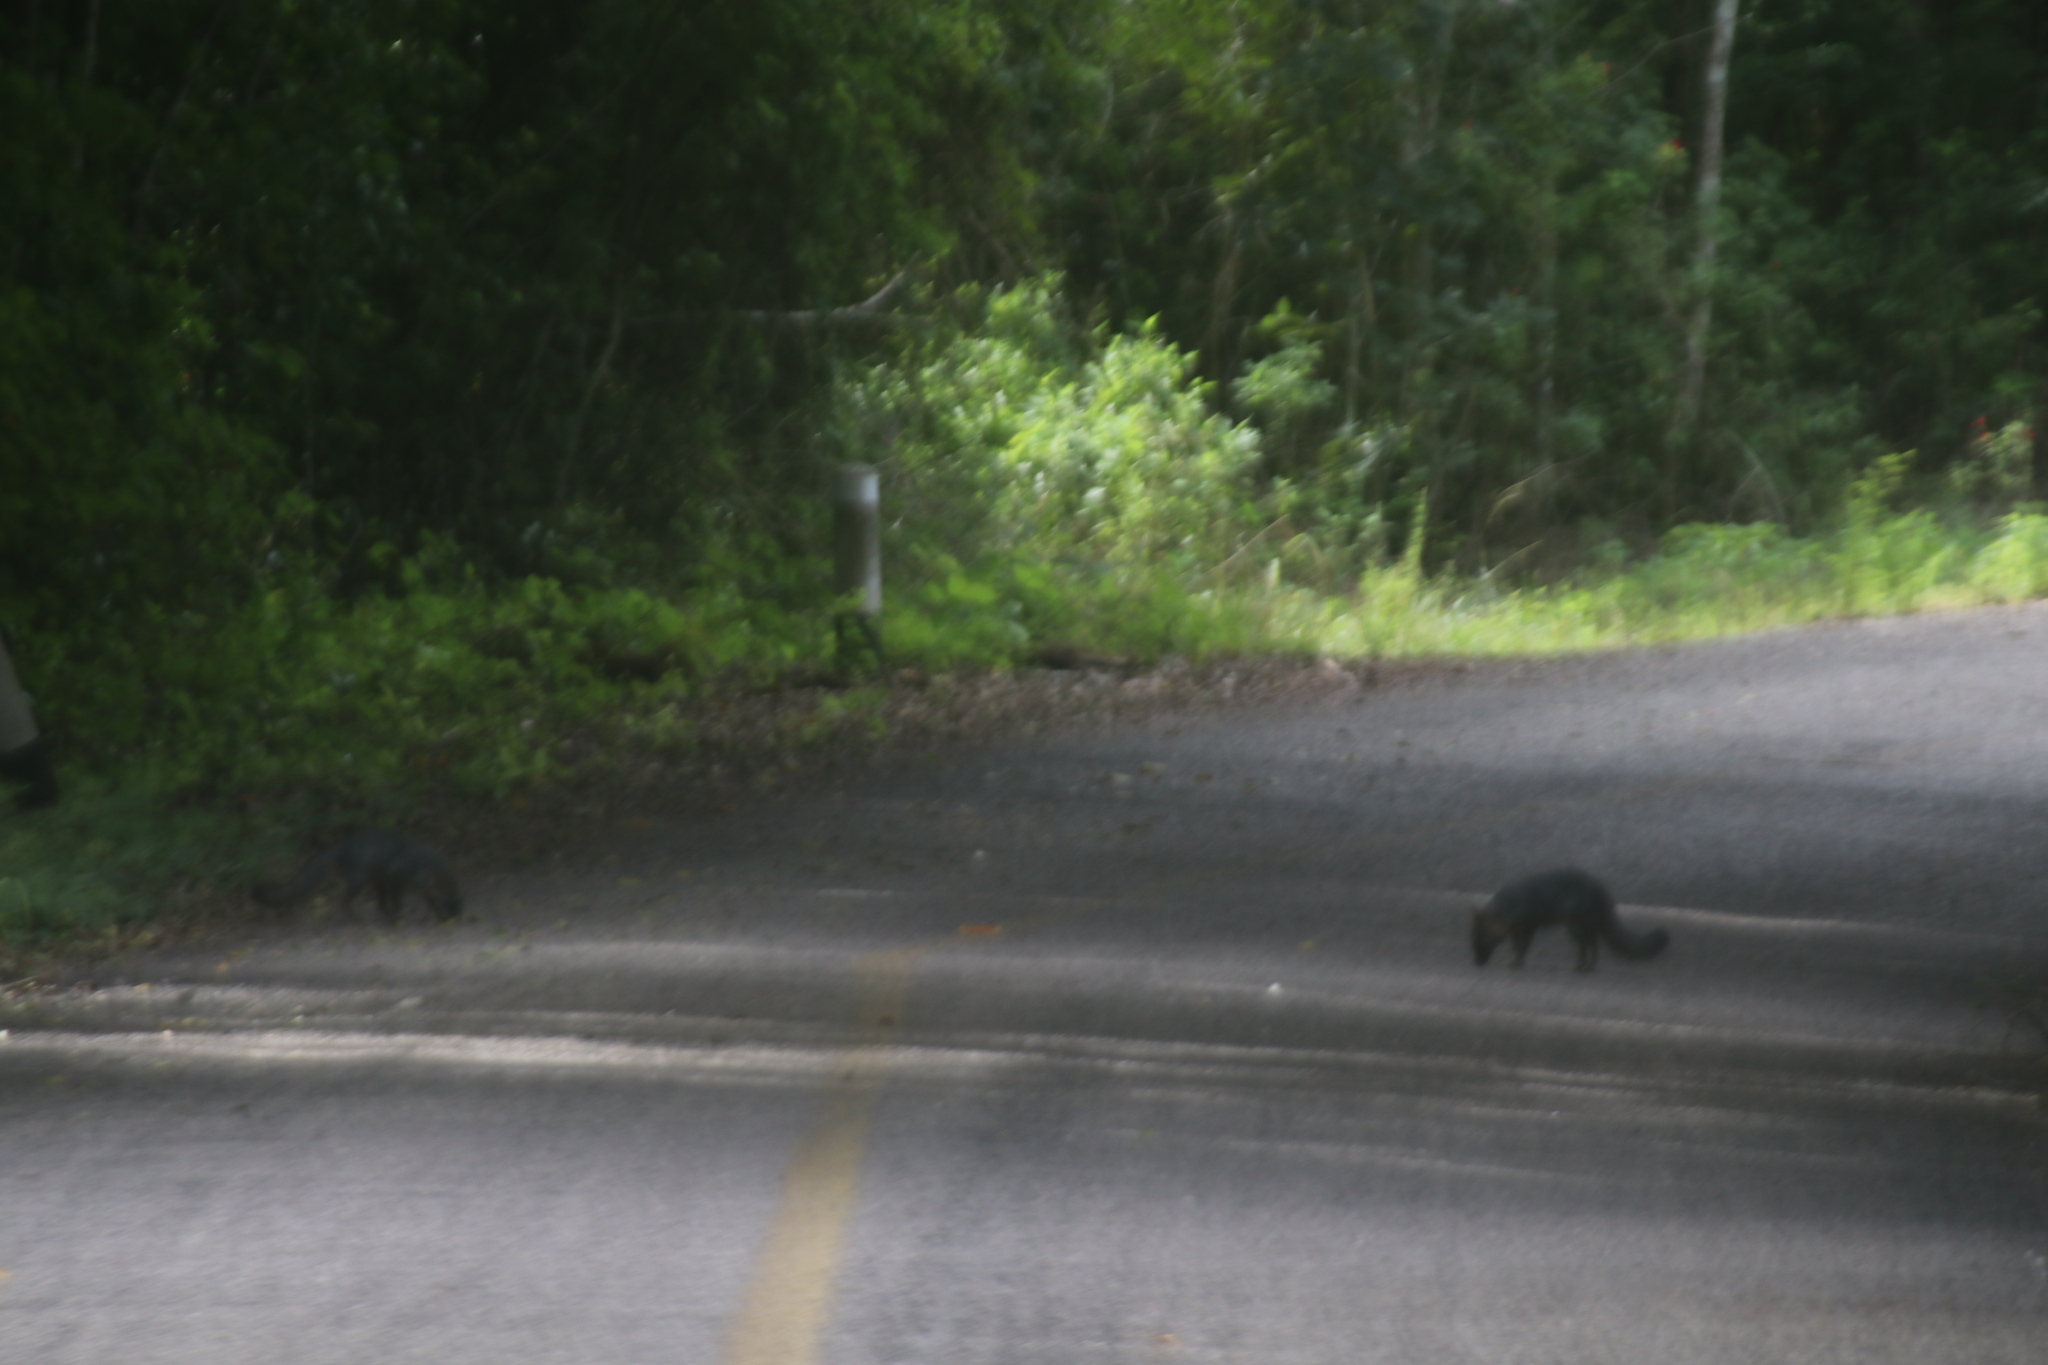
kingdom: Animalia
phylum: Chordata
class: Mammalia
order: Carnivora
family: Canidae
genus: Urocyon
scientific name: Urocyon cinereoargenteus
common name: Gray fox
